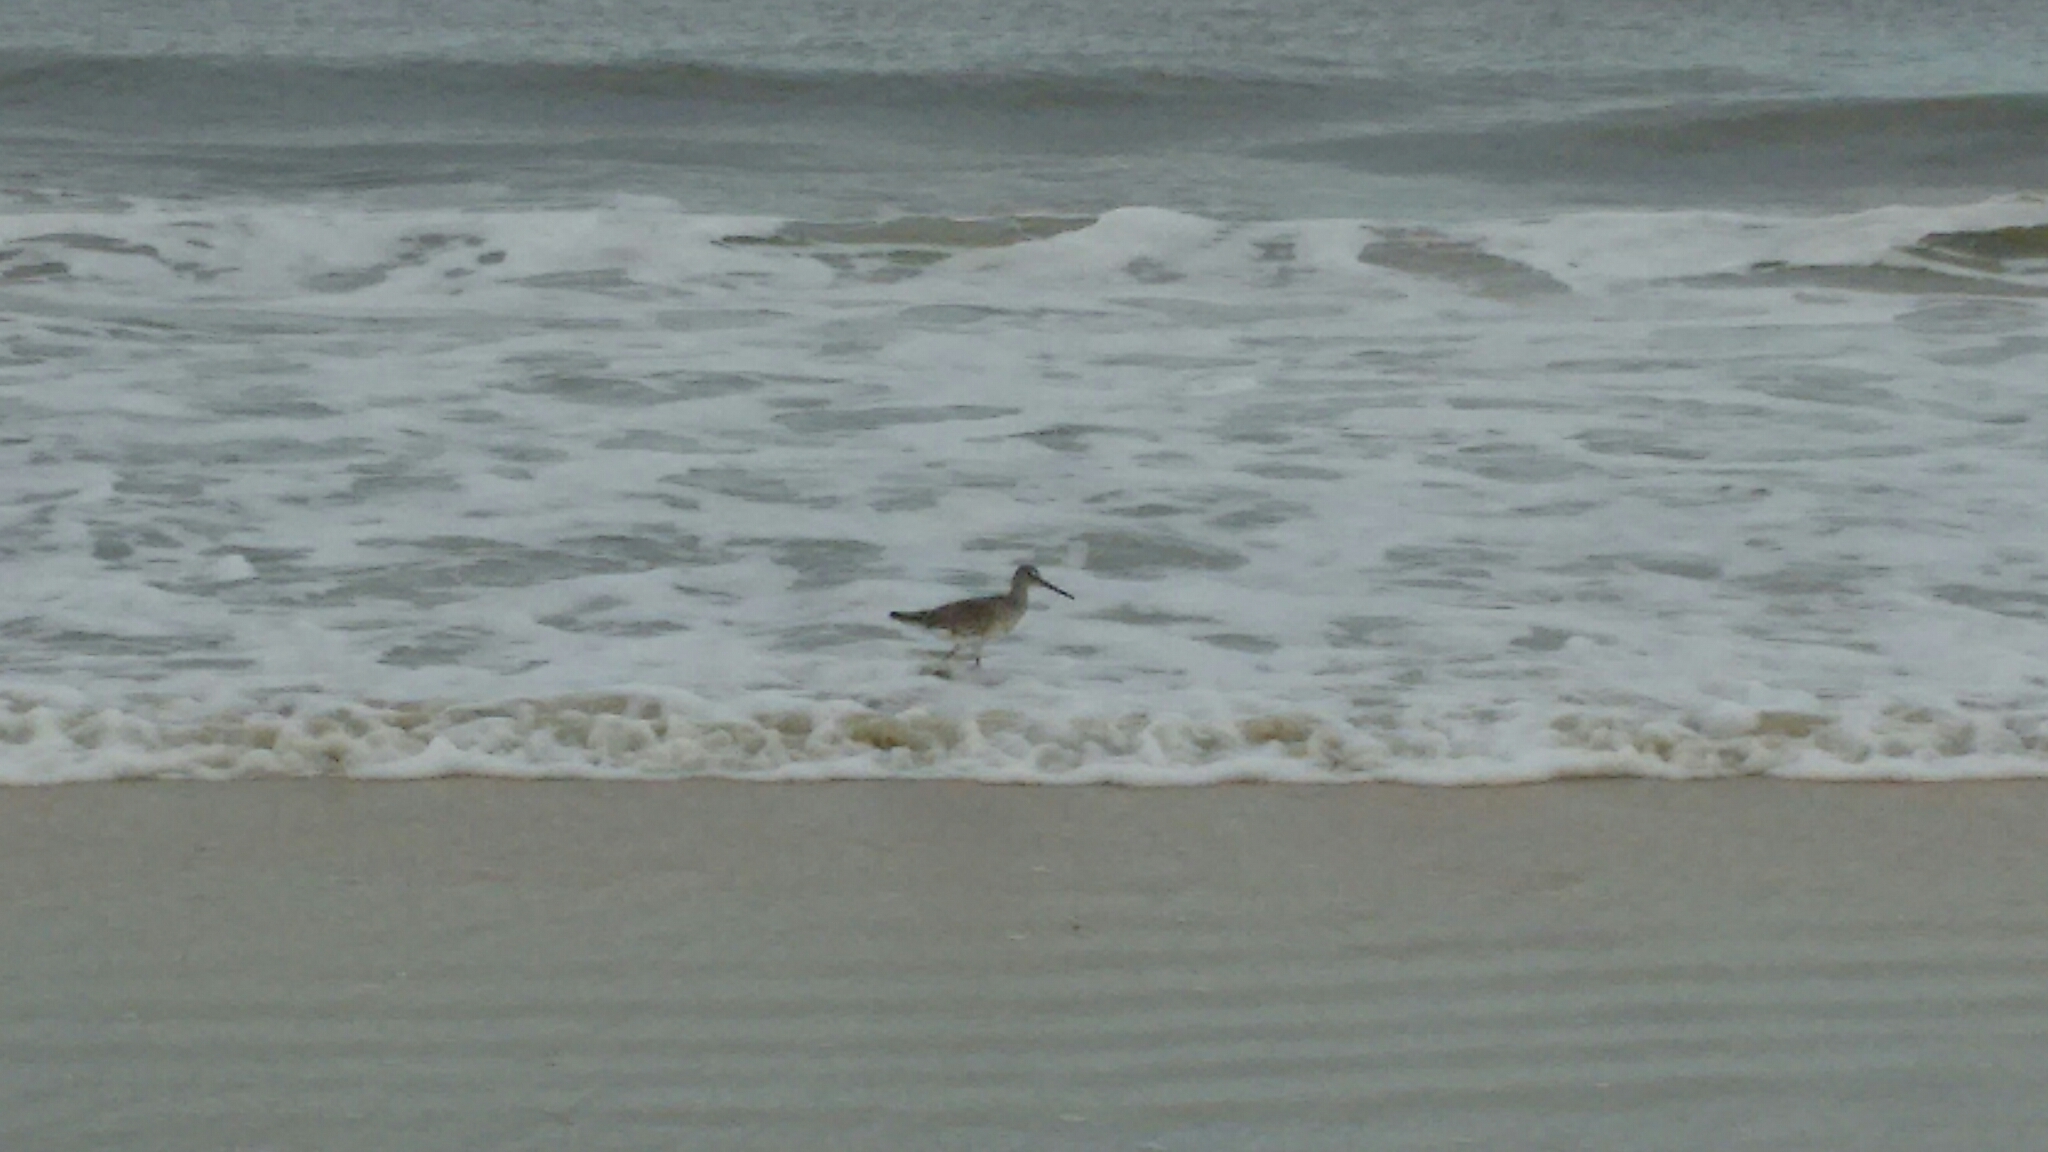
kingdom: Animalia
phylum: Chordata
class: Aves
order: Charadriiformes
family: Scolopacidae
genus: Tringa
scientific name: Tringa semipalmata
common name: Willet
